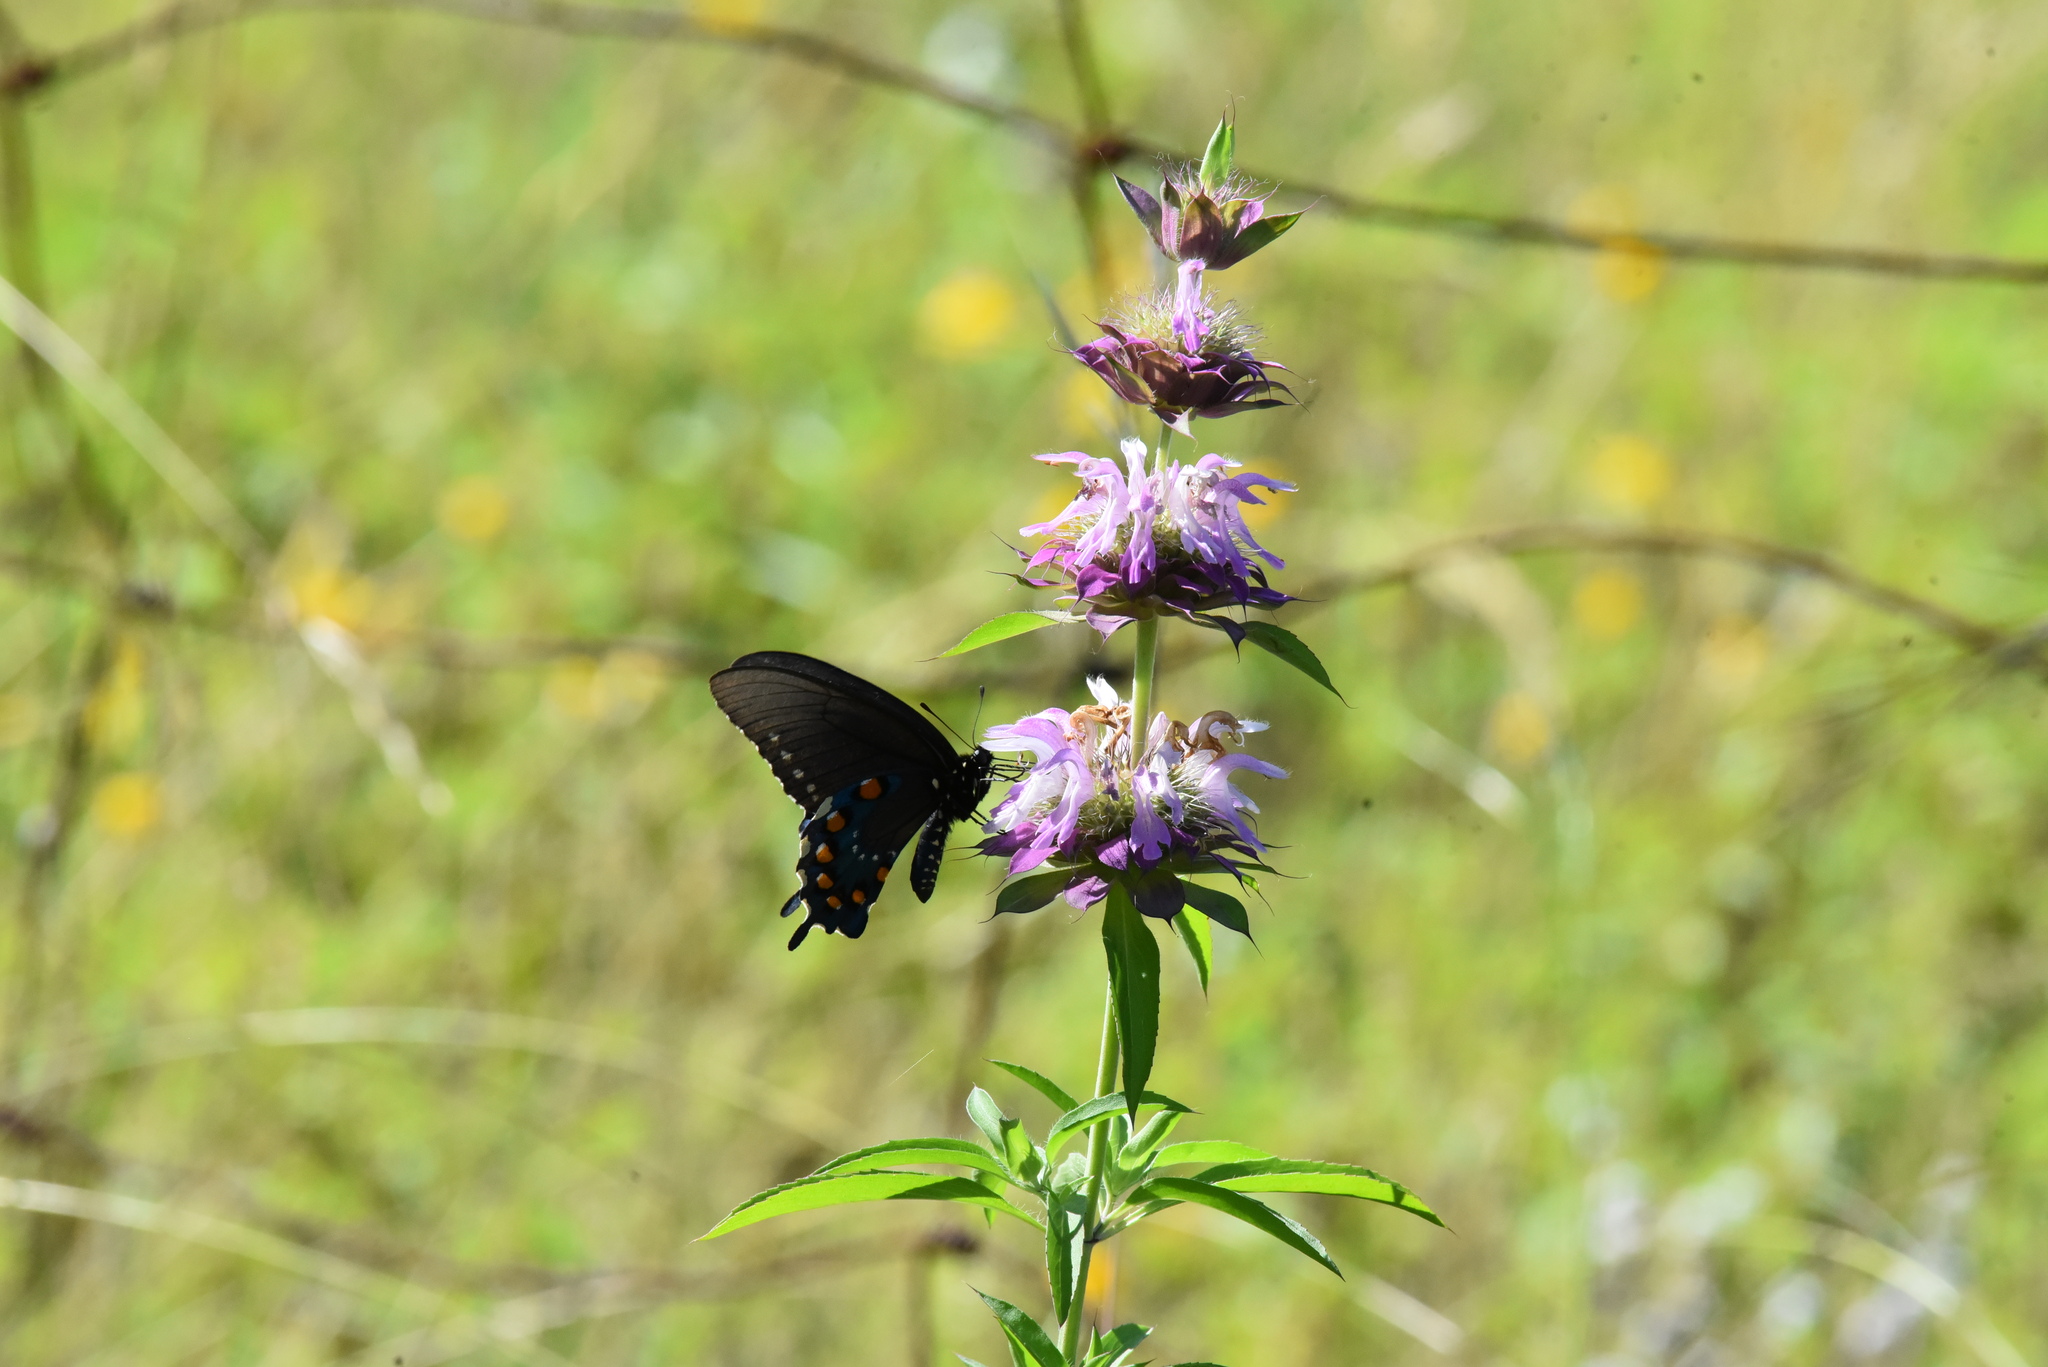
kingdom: Animalia
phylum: Arthropoda
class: Insecta
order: Lepidoptera
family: Papilionidae
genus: Battus
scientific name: Battus philenor
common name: Pipevine swallowtail
